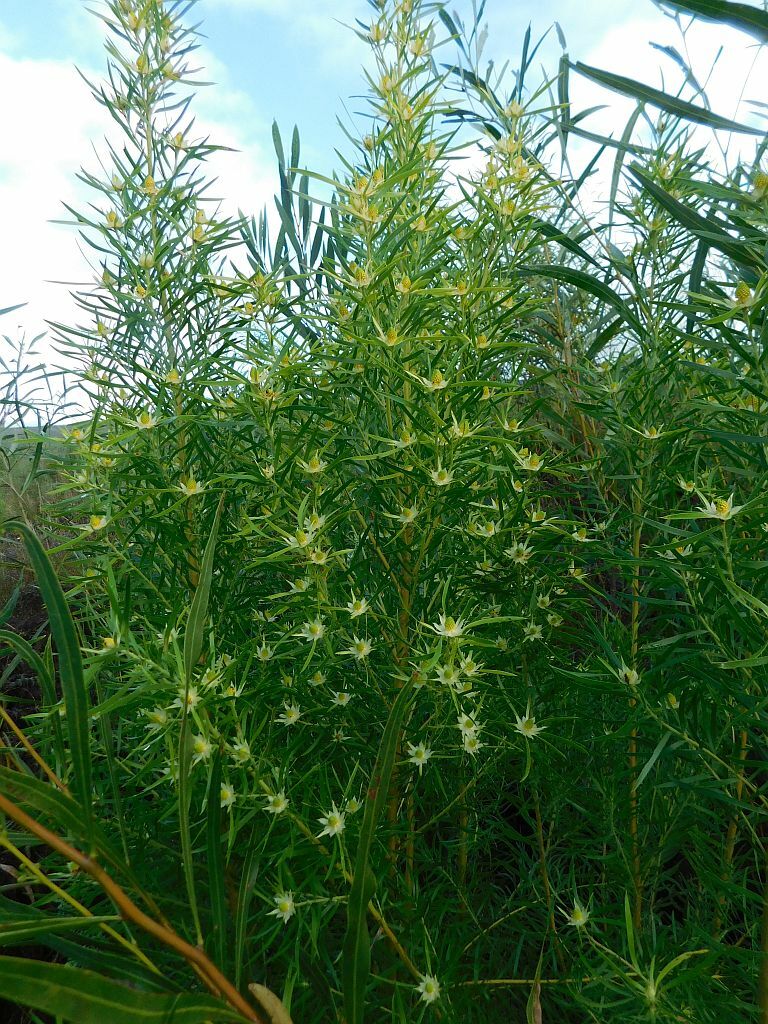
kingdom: Plantae
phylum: Tracheophyta
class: Magnoliopsida
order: Proteales
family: Proteaceae
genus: Leucadendron
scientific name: Leucadendron salicifolium
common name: Common stream conebush
